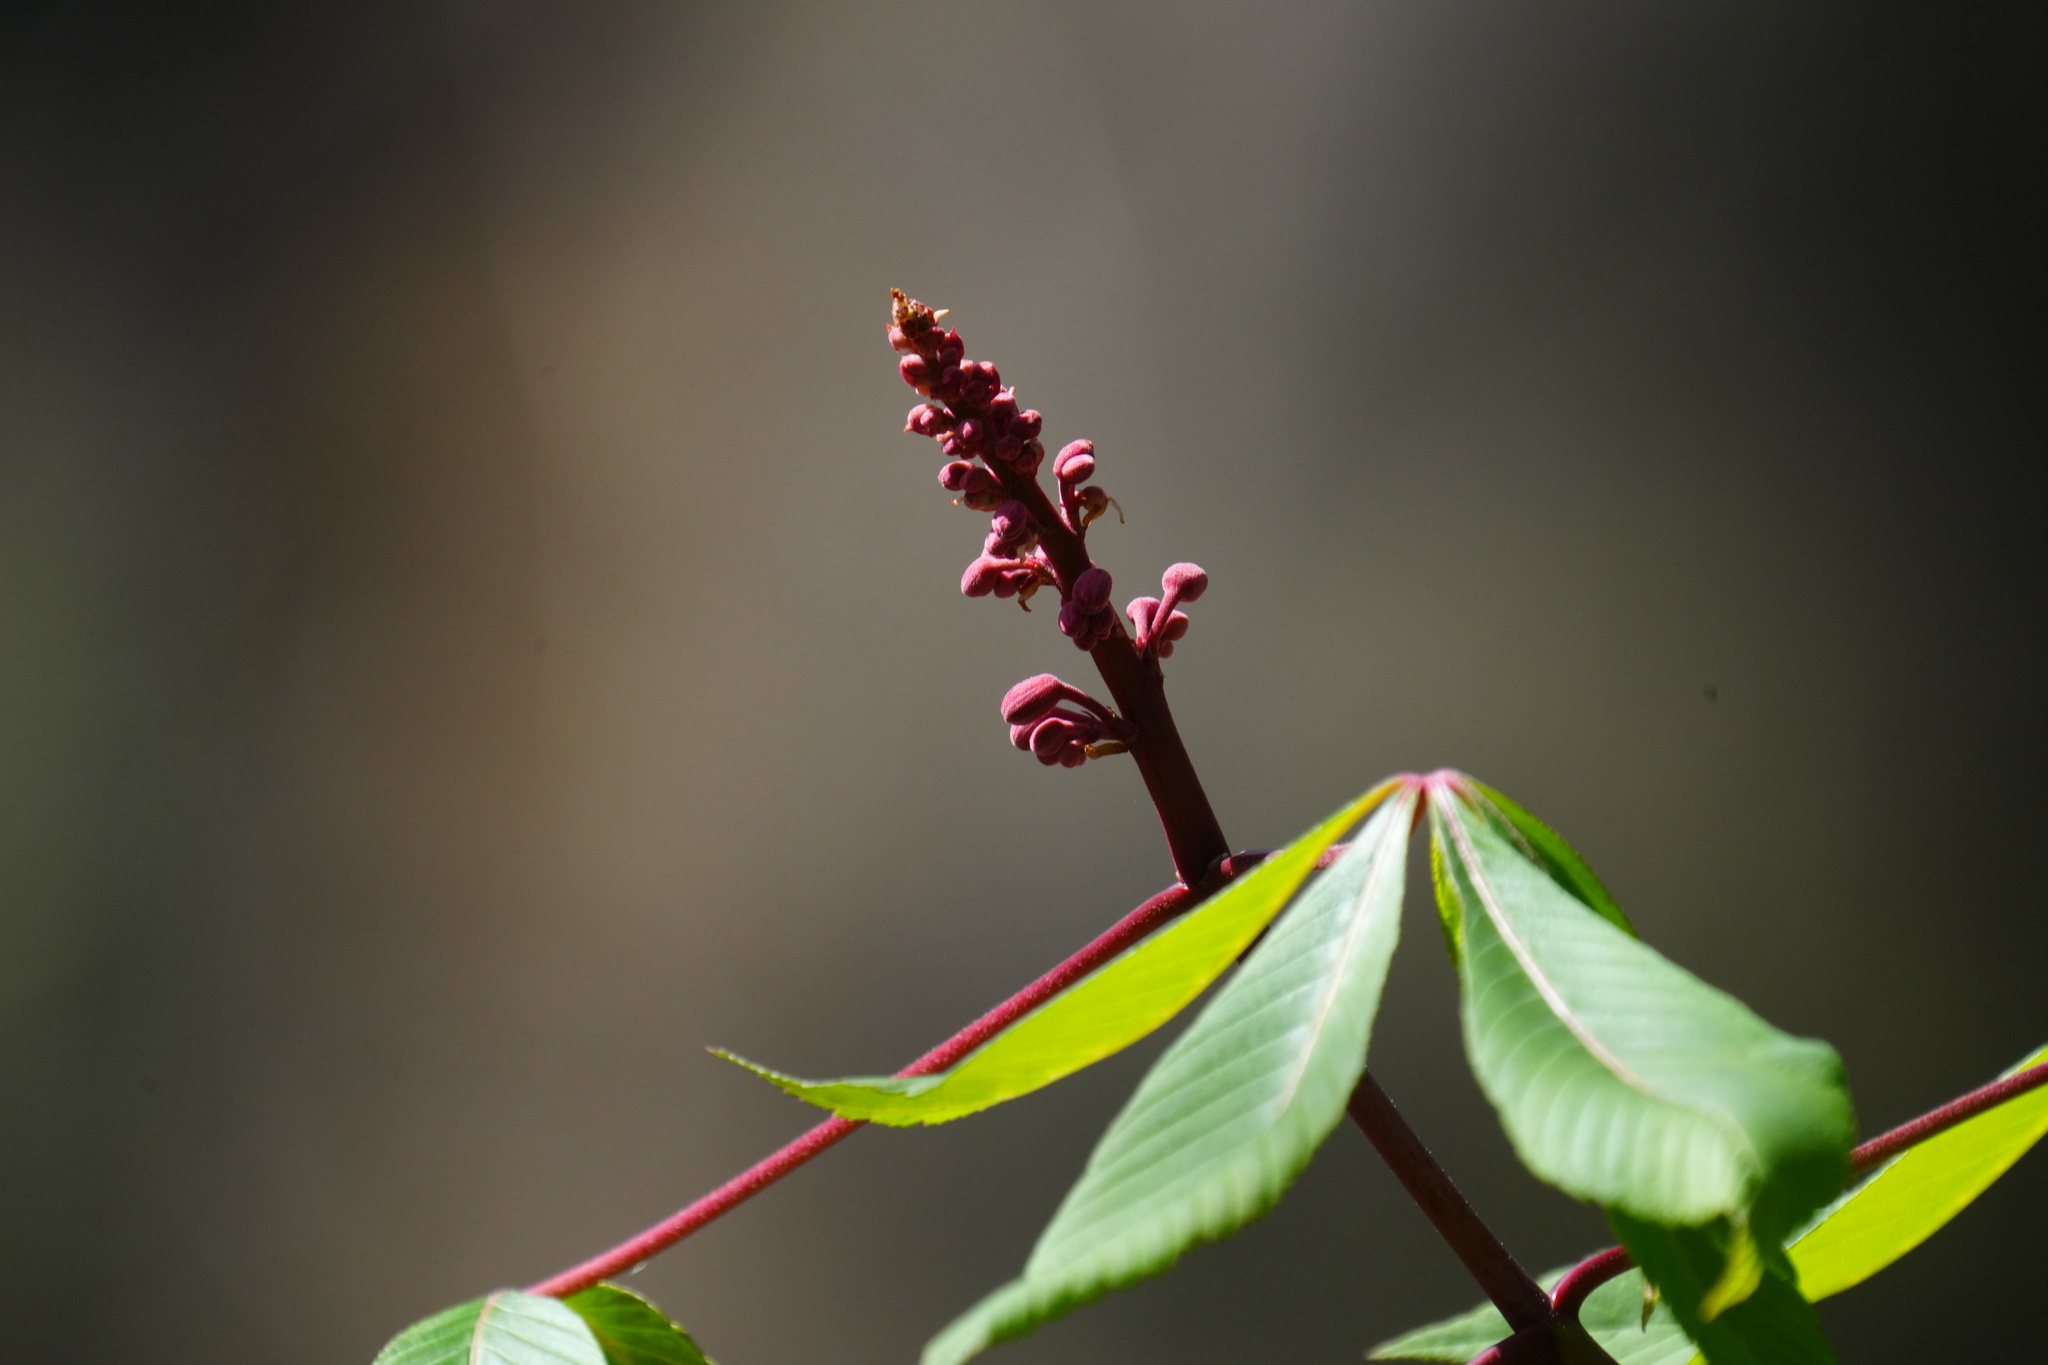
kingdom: Plantae
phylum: Tracheophyta
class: Magnoliopsida
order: Sapindales
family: Sapindaceae
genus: Aesculus
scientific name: Aesculus pavia
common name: Red buckeye
